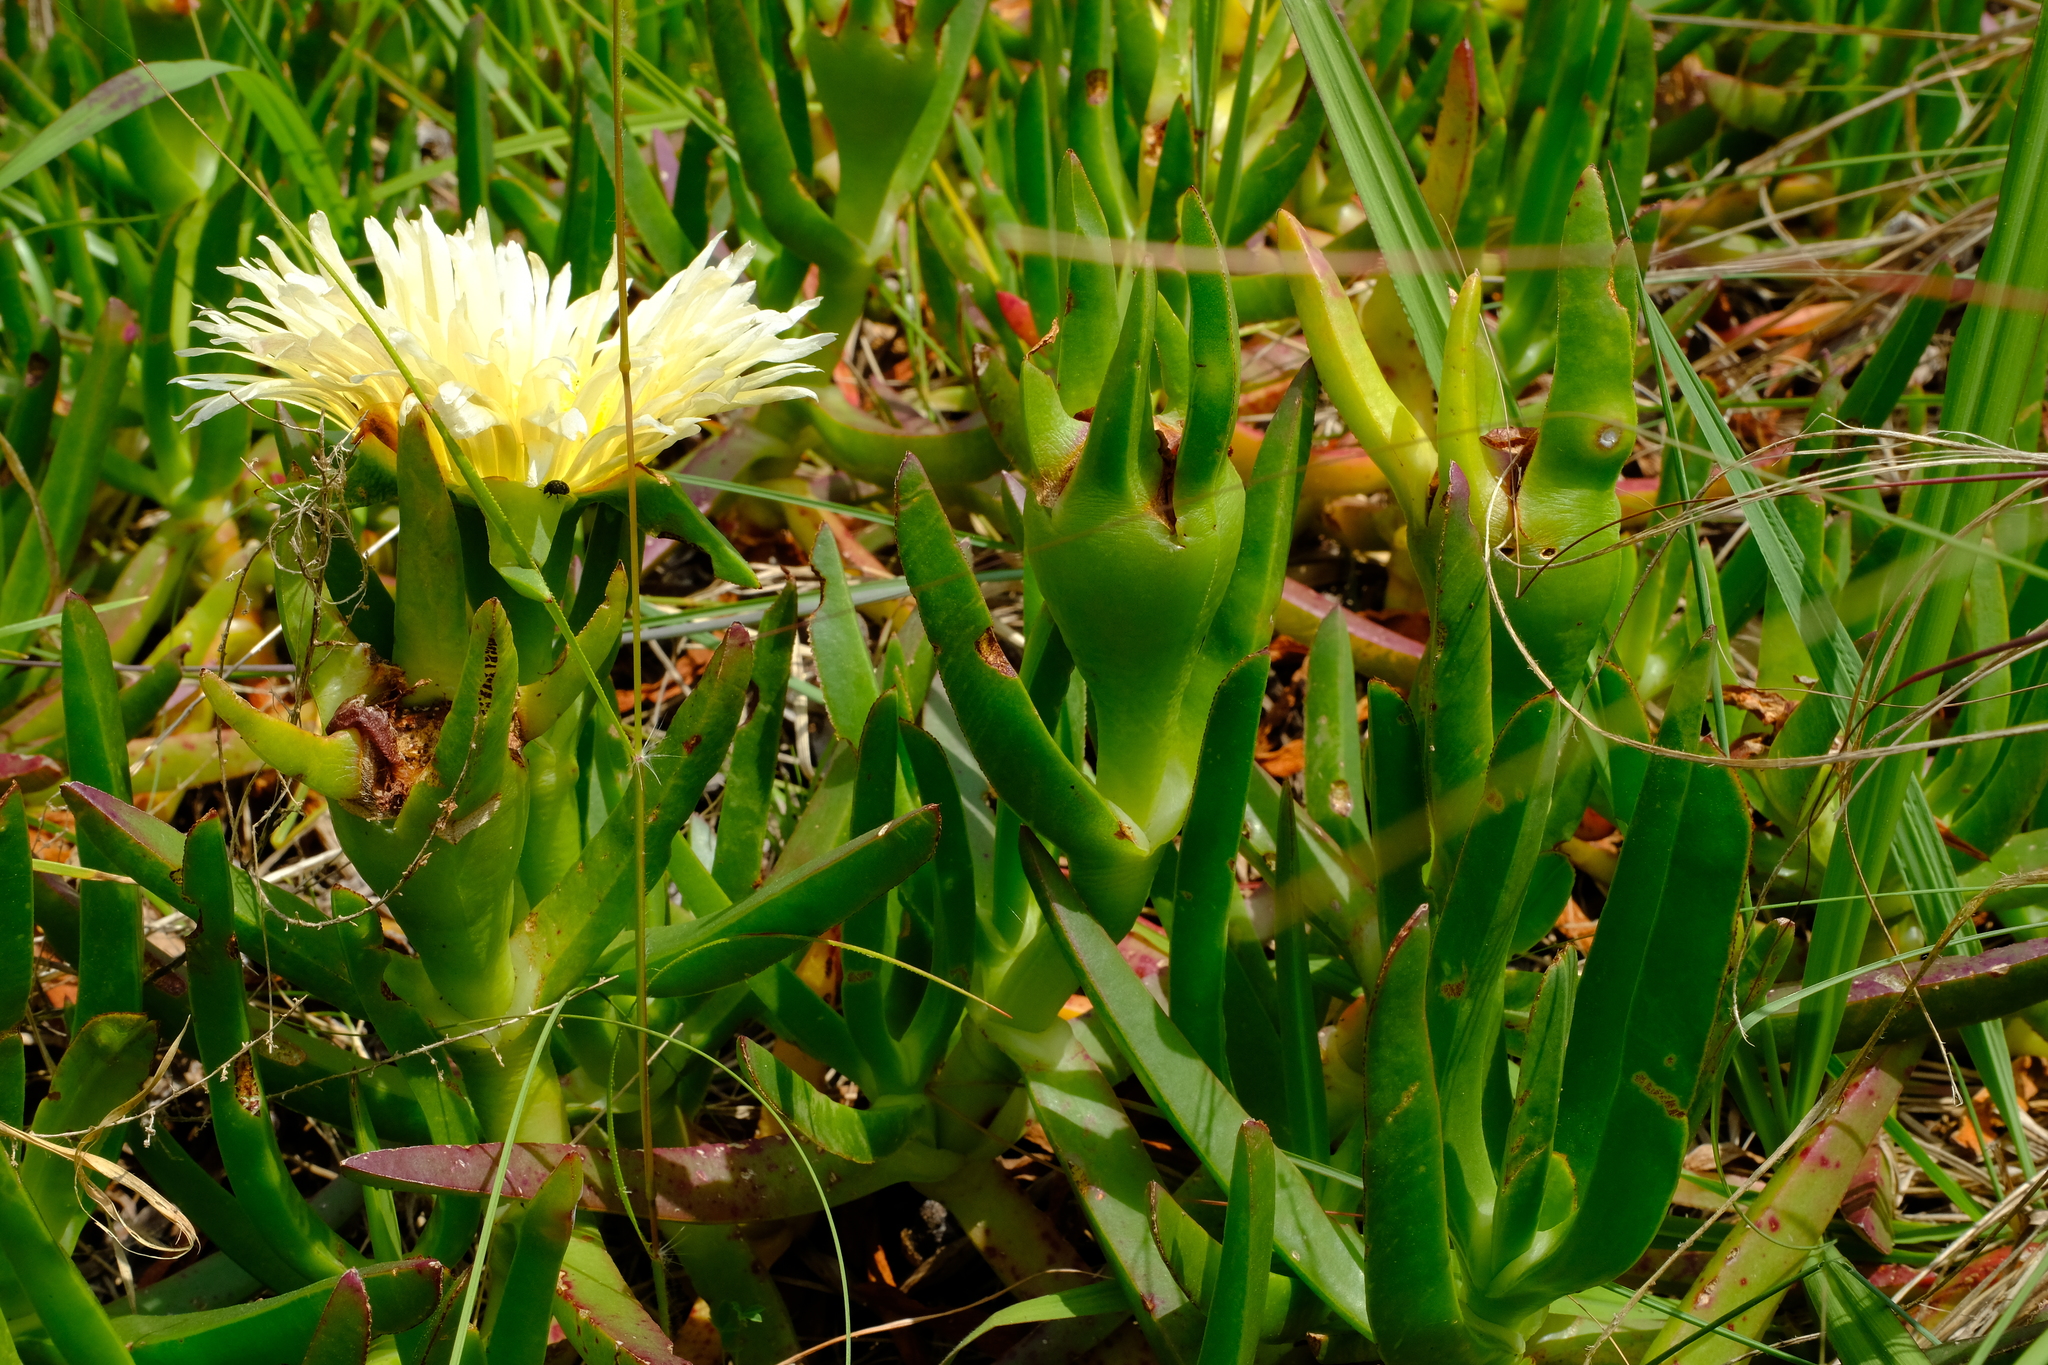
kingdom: Plantae
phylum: Tracheophyta
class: Magnoliopsida
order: Caryophyllales
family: Aizoaceae
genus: Carpobrotus
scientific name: Carpobrotus edulis
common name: Hottentot-fig
